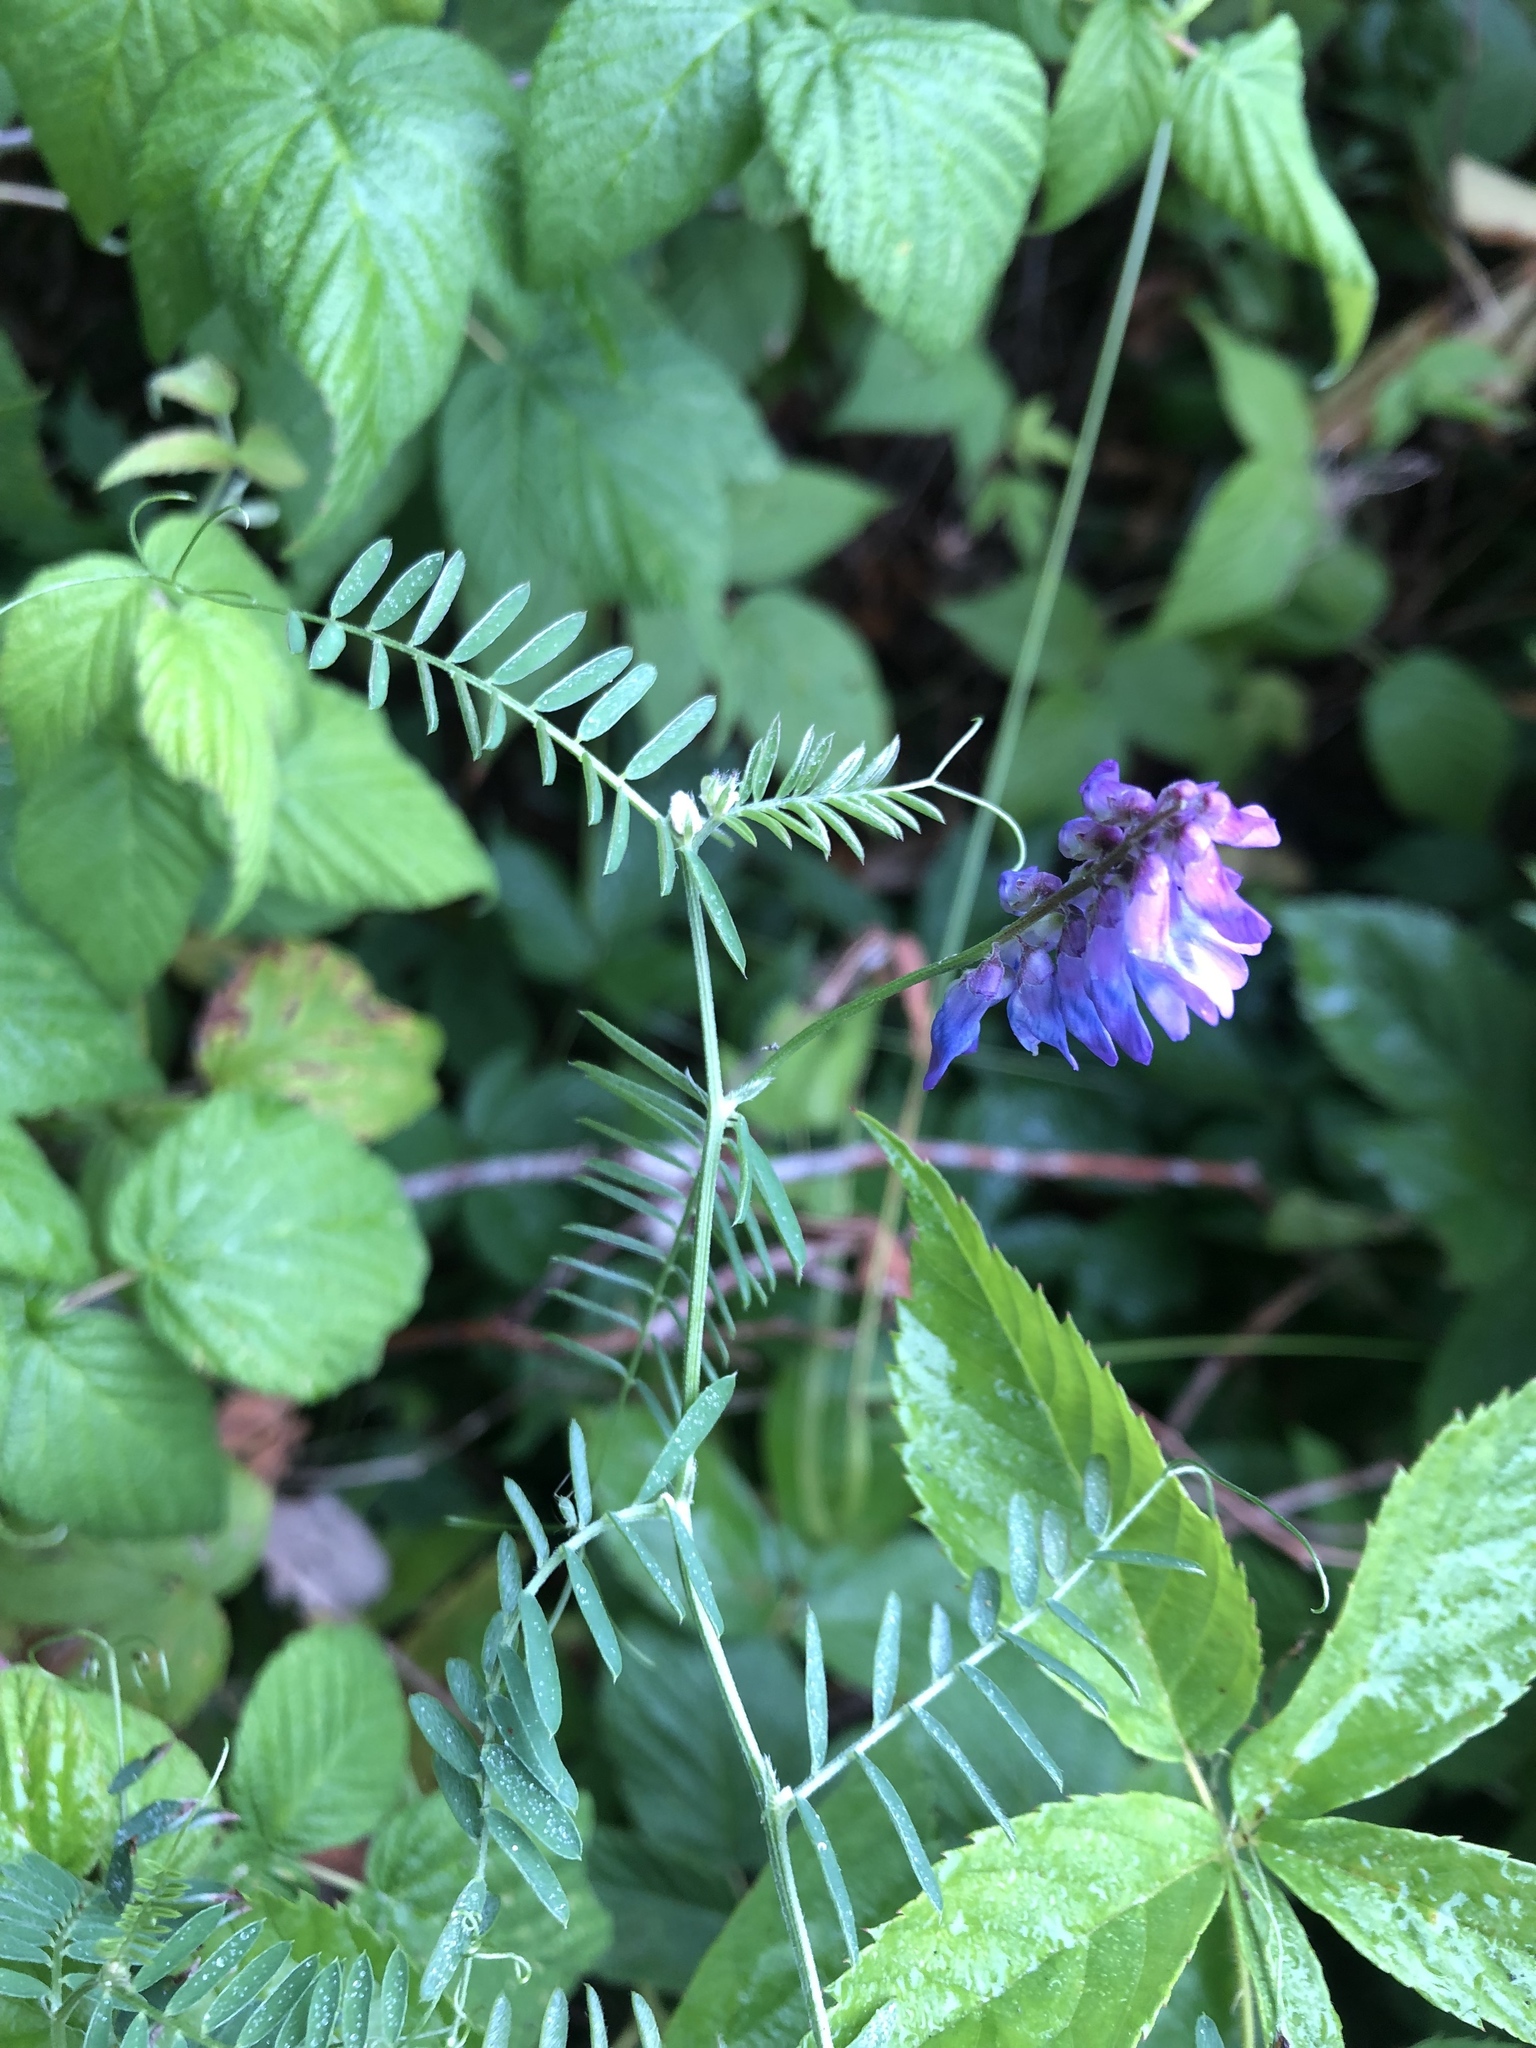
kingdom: Plantae
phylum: Tracheophyta
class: Magnoliopsida
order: Fabales
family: Fabaceae
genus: Vicia
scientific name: Vicia cracca
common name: Bird vetch
